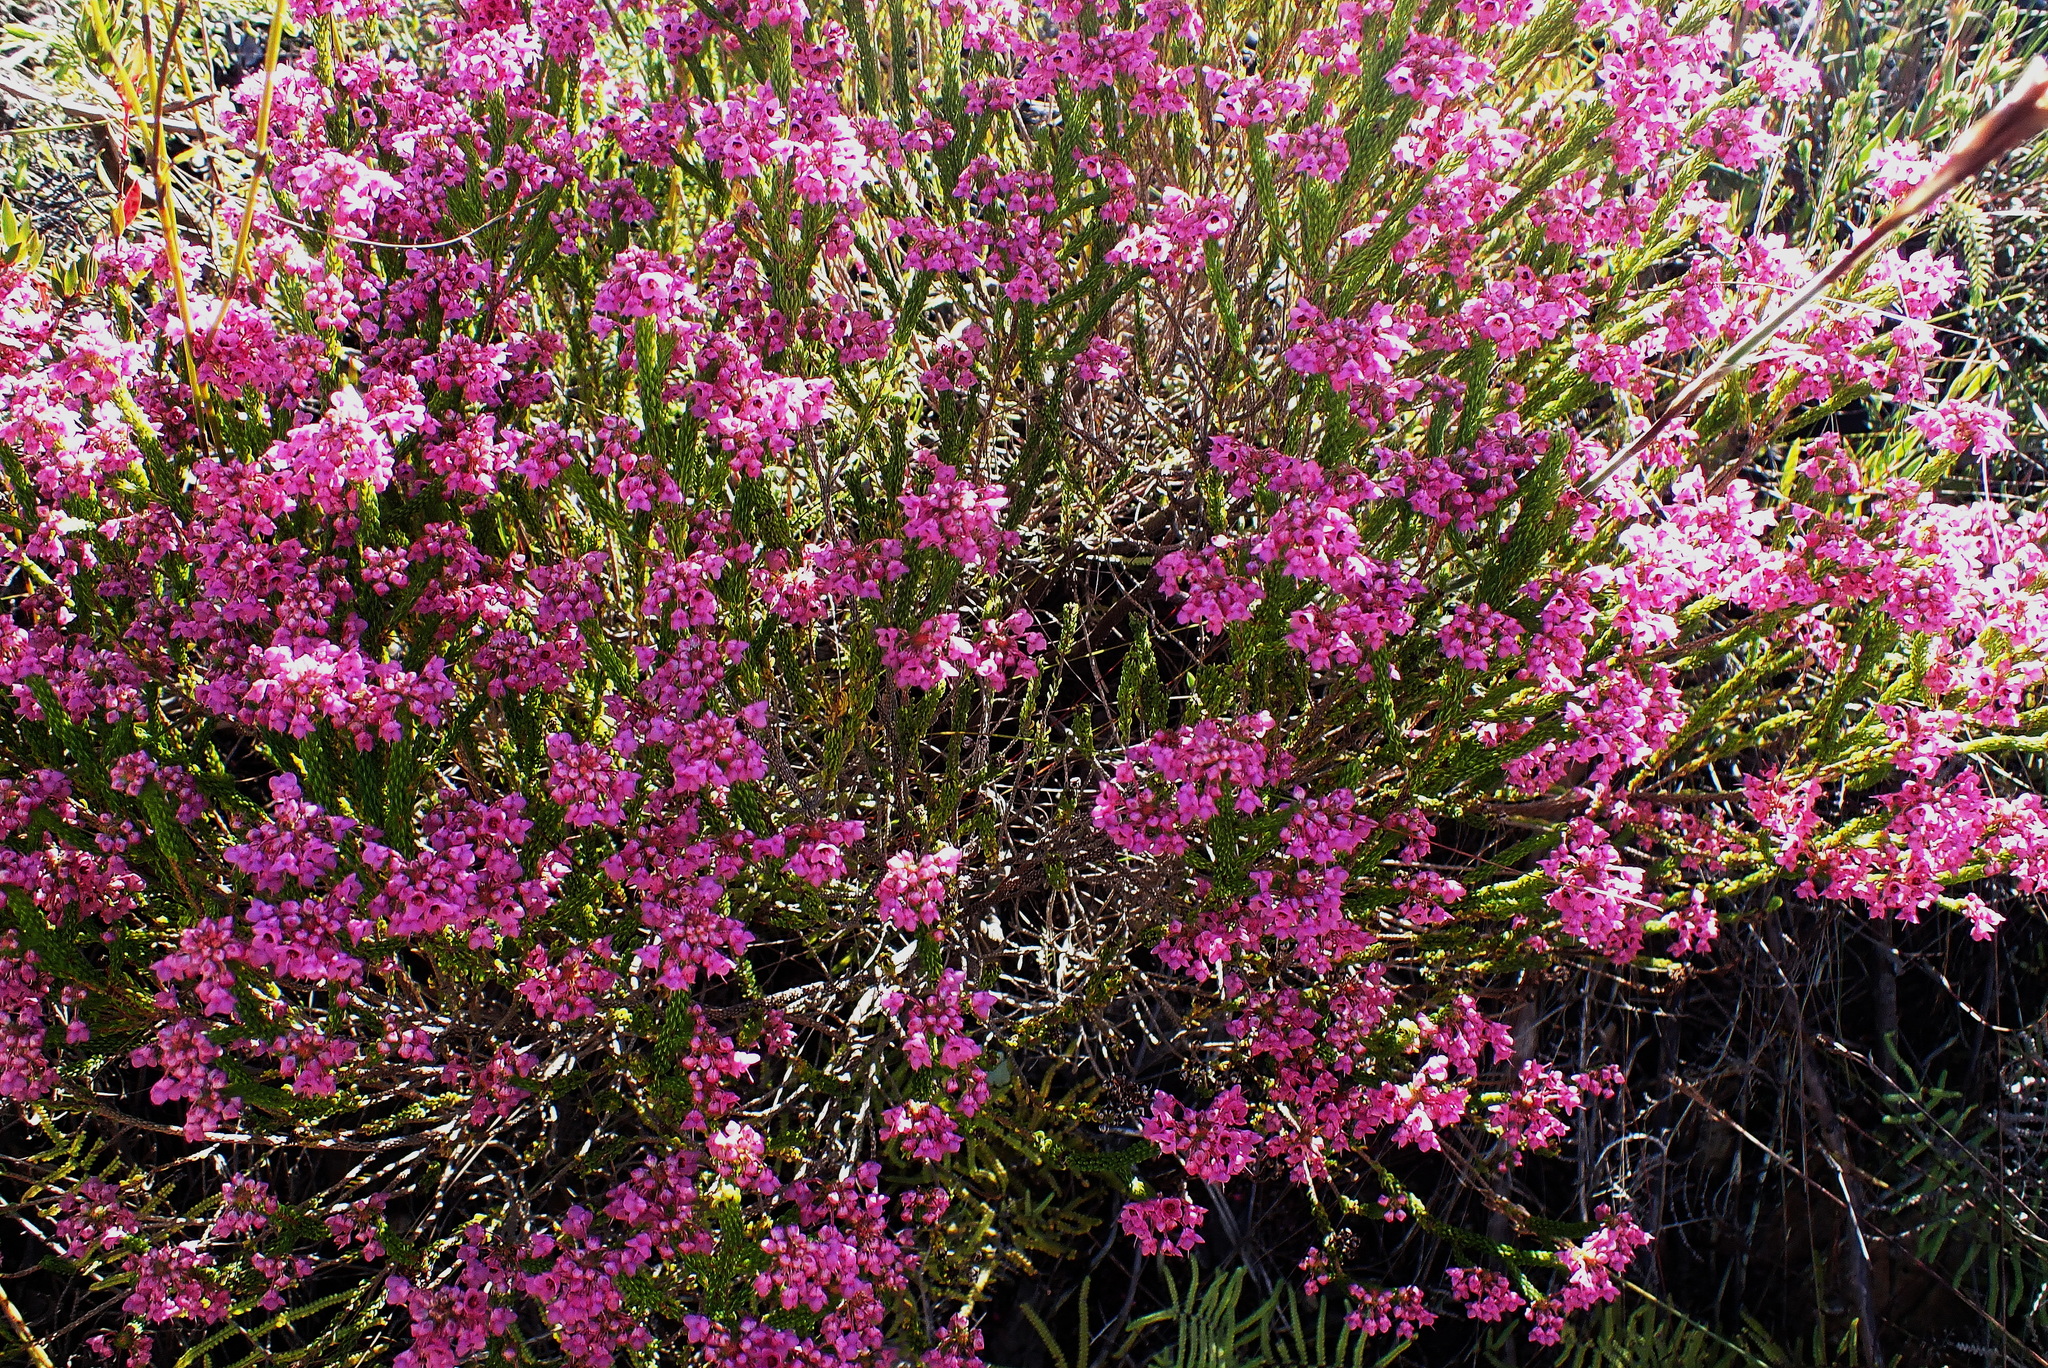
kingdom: Plantae
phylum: Tracheophyta
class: Magnoliopsida
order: Ericales
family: Ericaceae
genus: Erica
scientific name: Erica seriphiifolia
